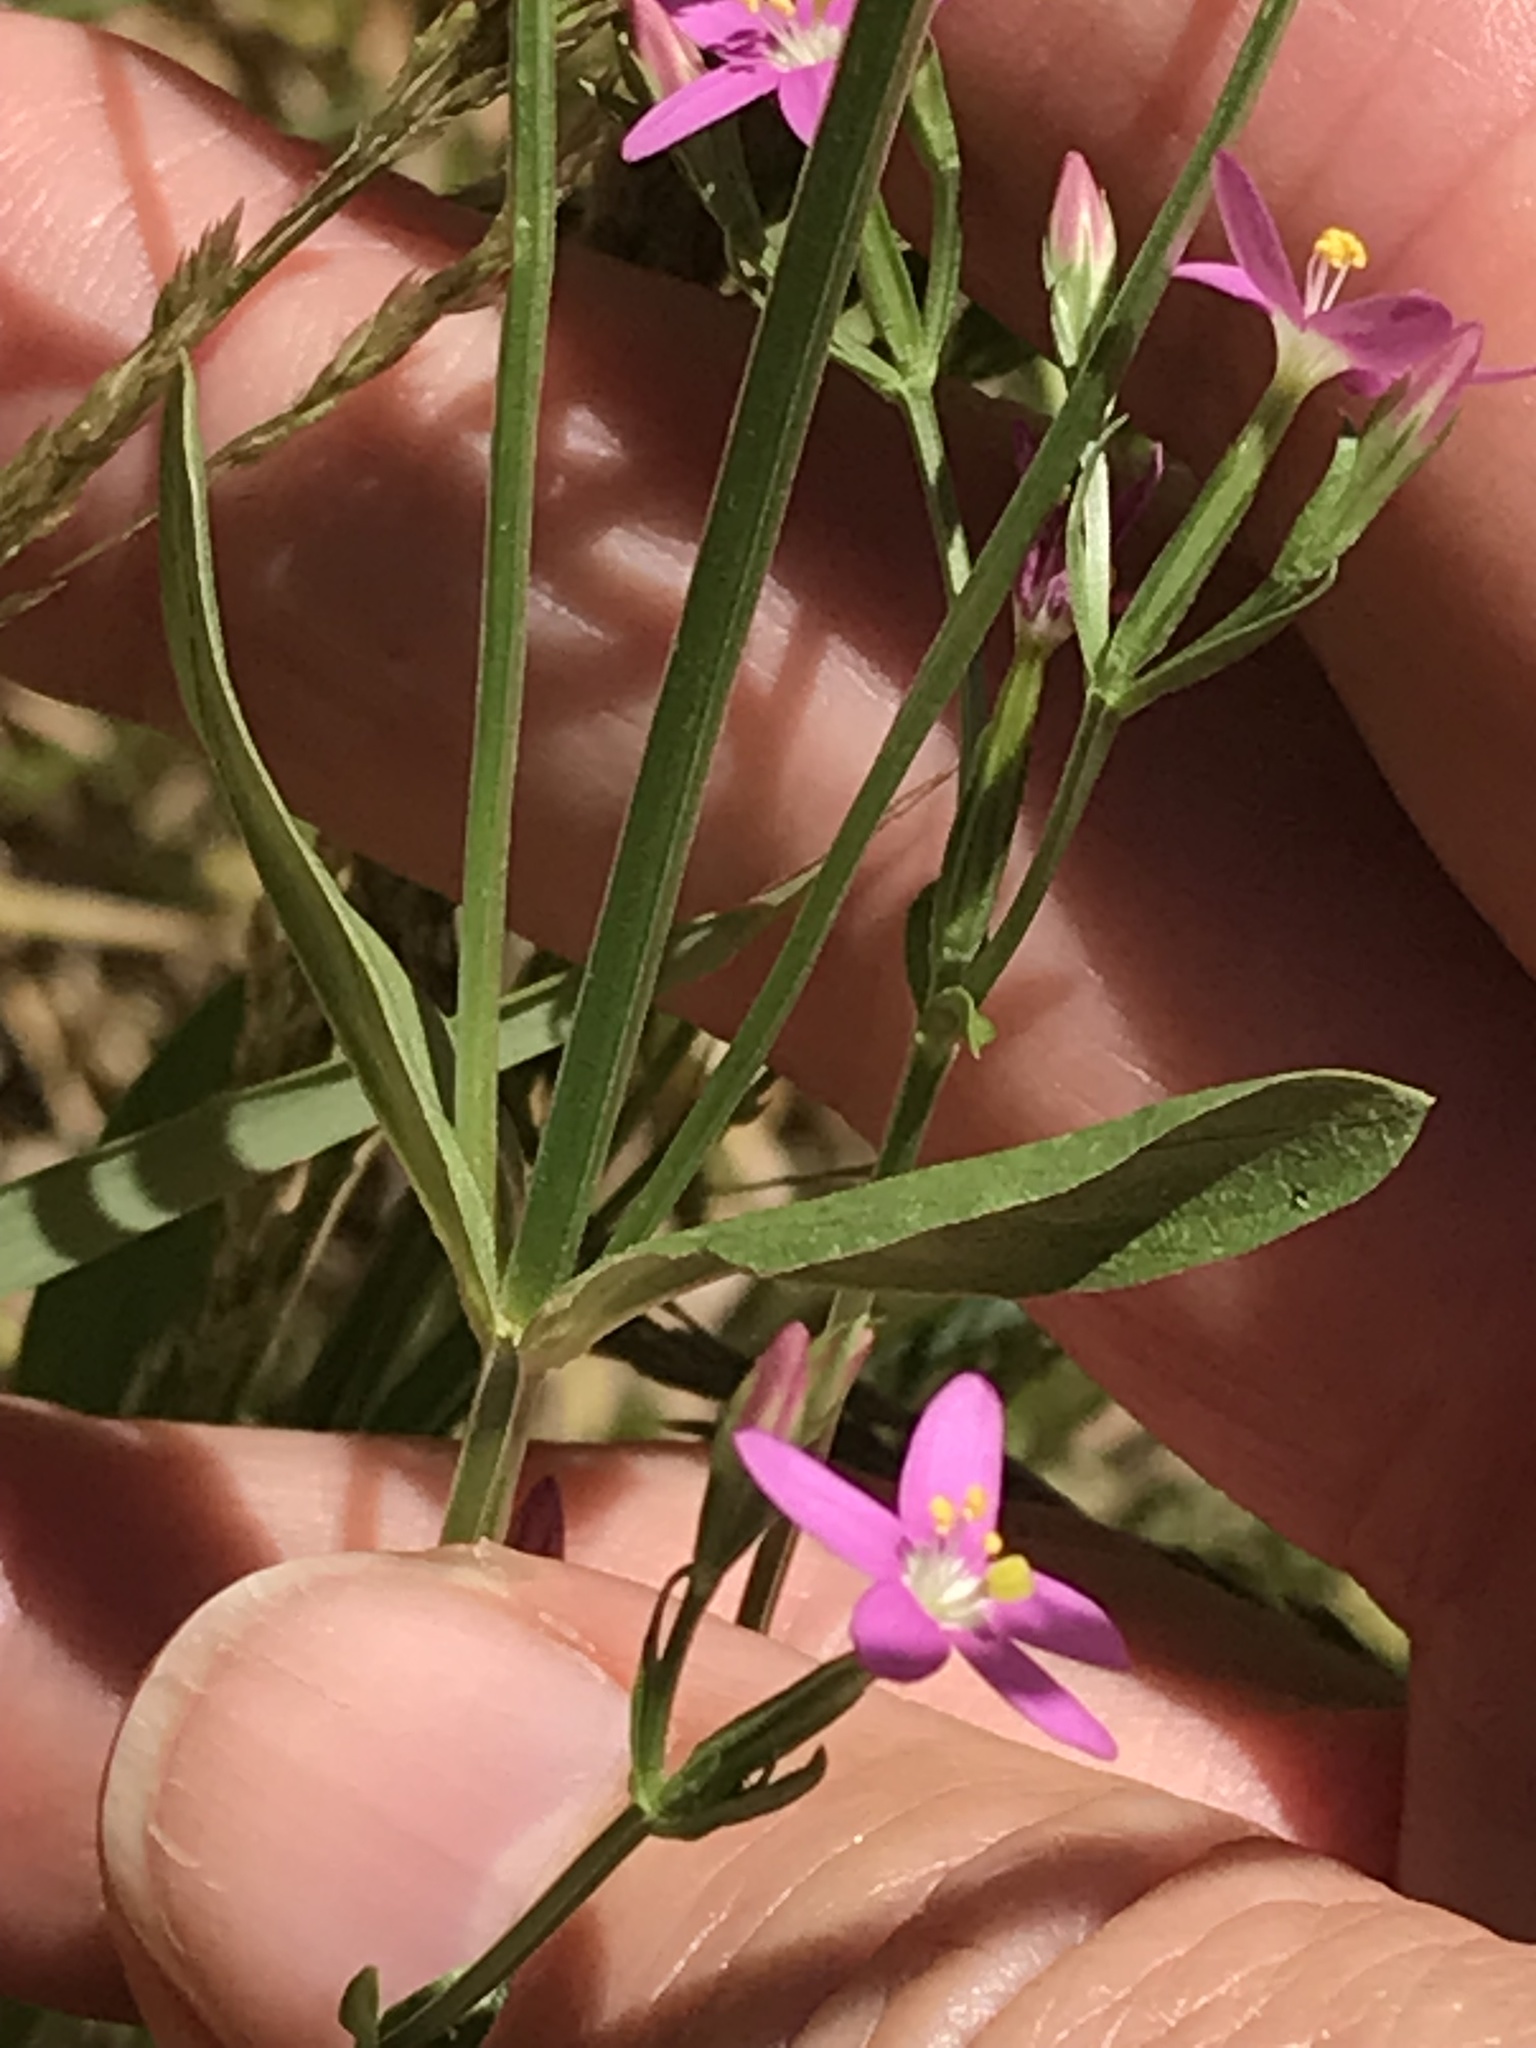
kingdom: Plantae
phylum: Tracheophyta
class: Magnoliopsida
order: Gentianales
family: Gentianaceae
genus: Zeltnera
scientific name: Zeltnera muhlenbergii
